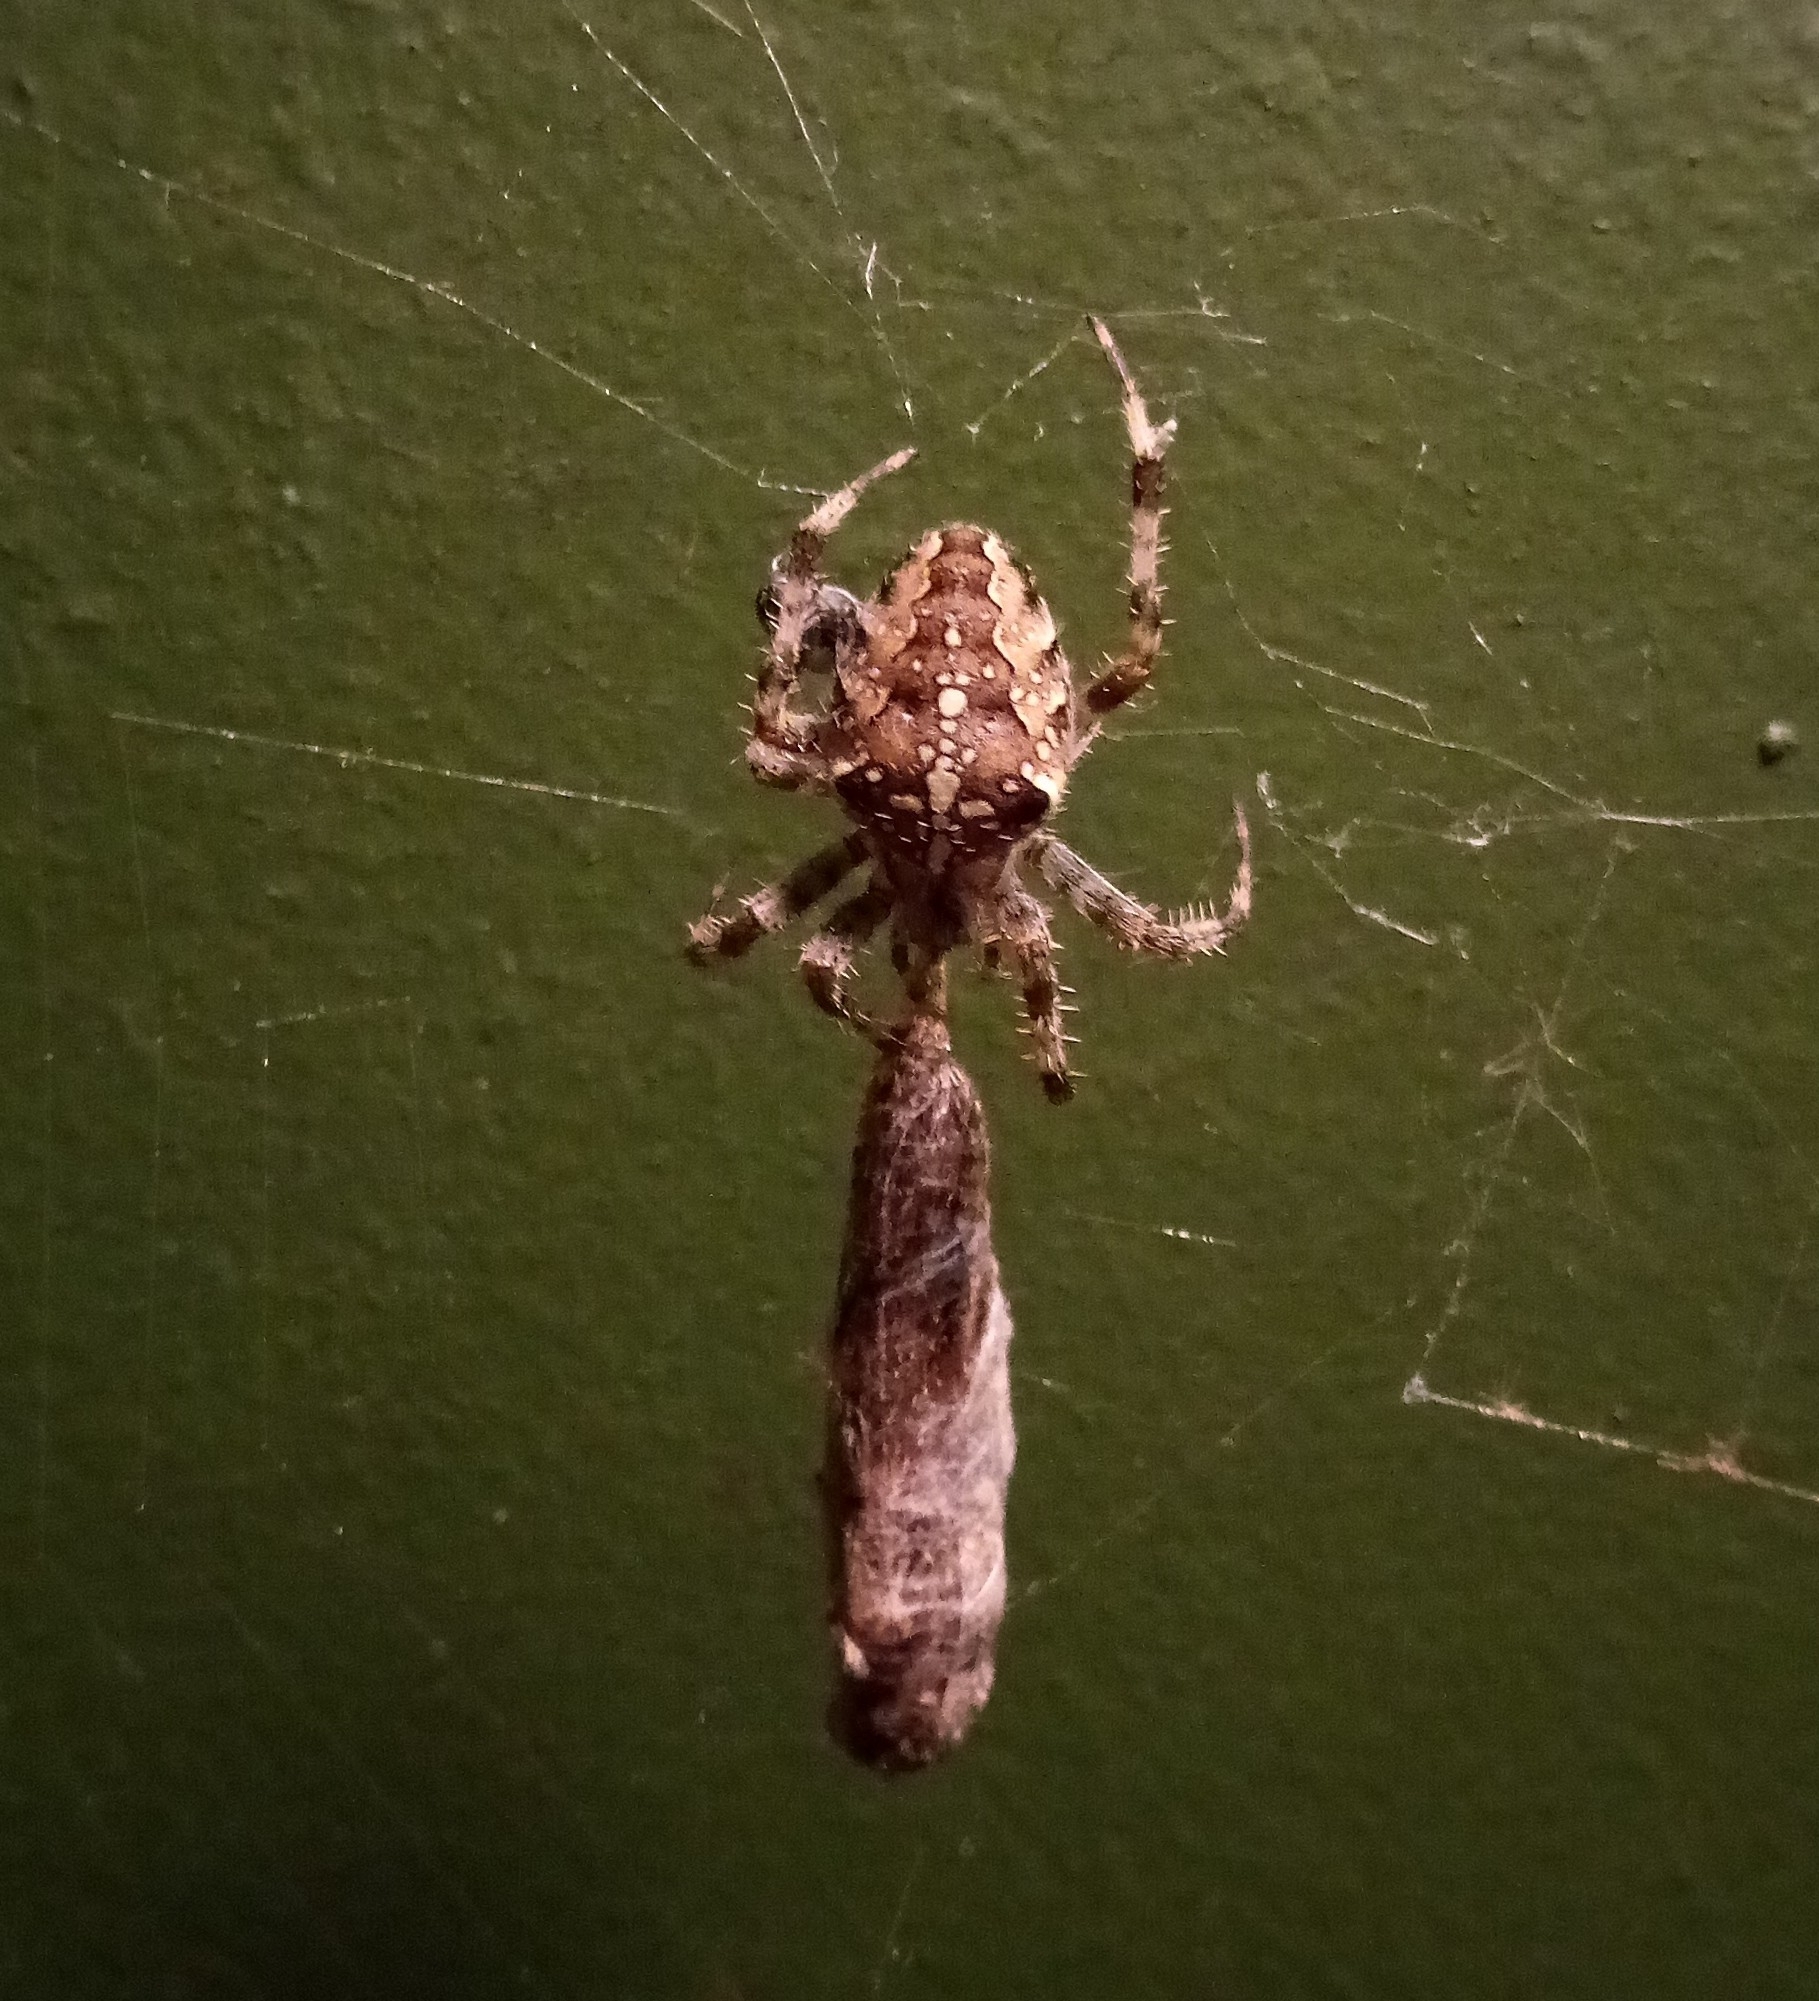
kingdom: Animalia
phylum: Arthropoda
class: Arachnida
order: Araneae
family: Araneidae
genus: Araneus
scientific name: Araneus diadematus
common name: Cross orbweaver
